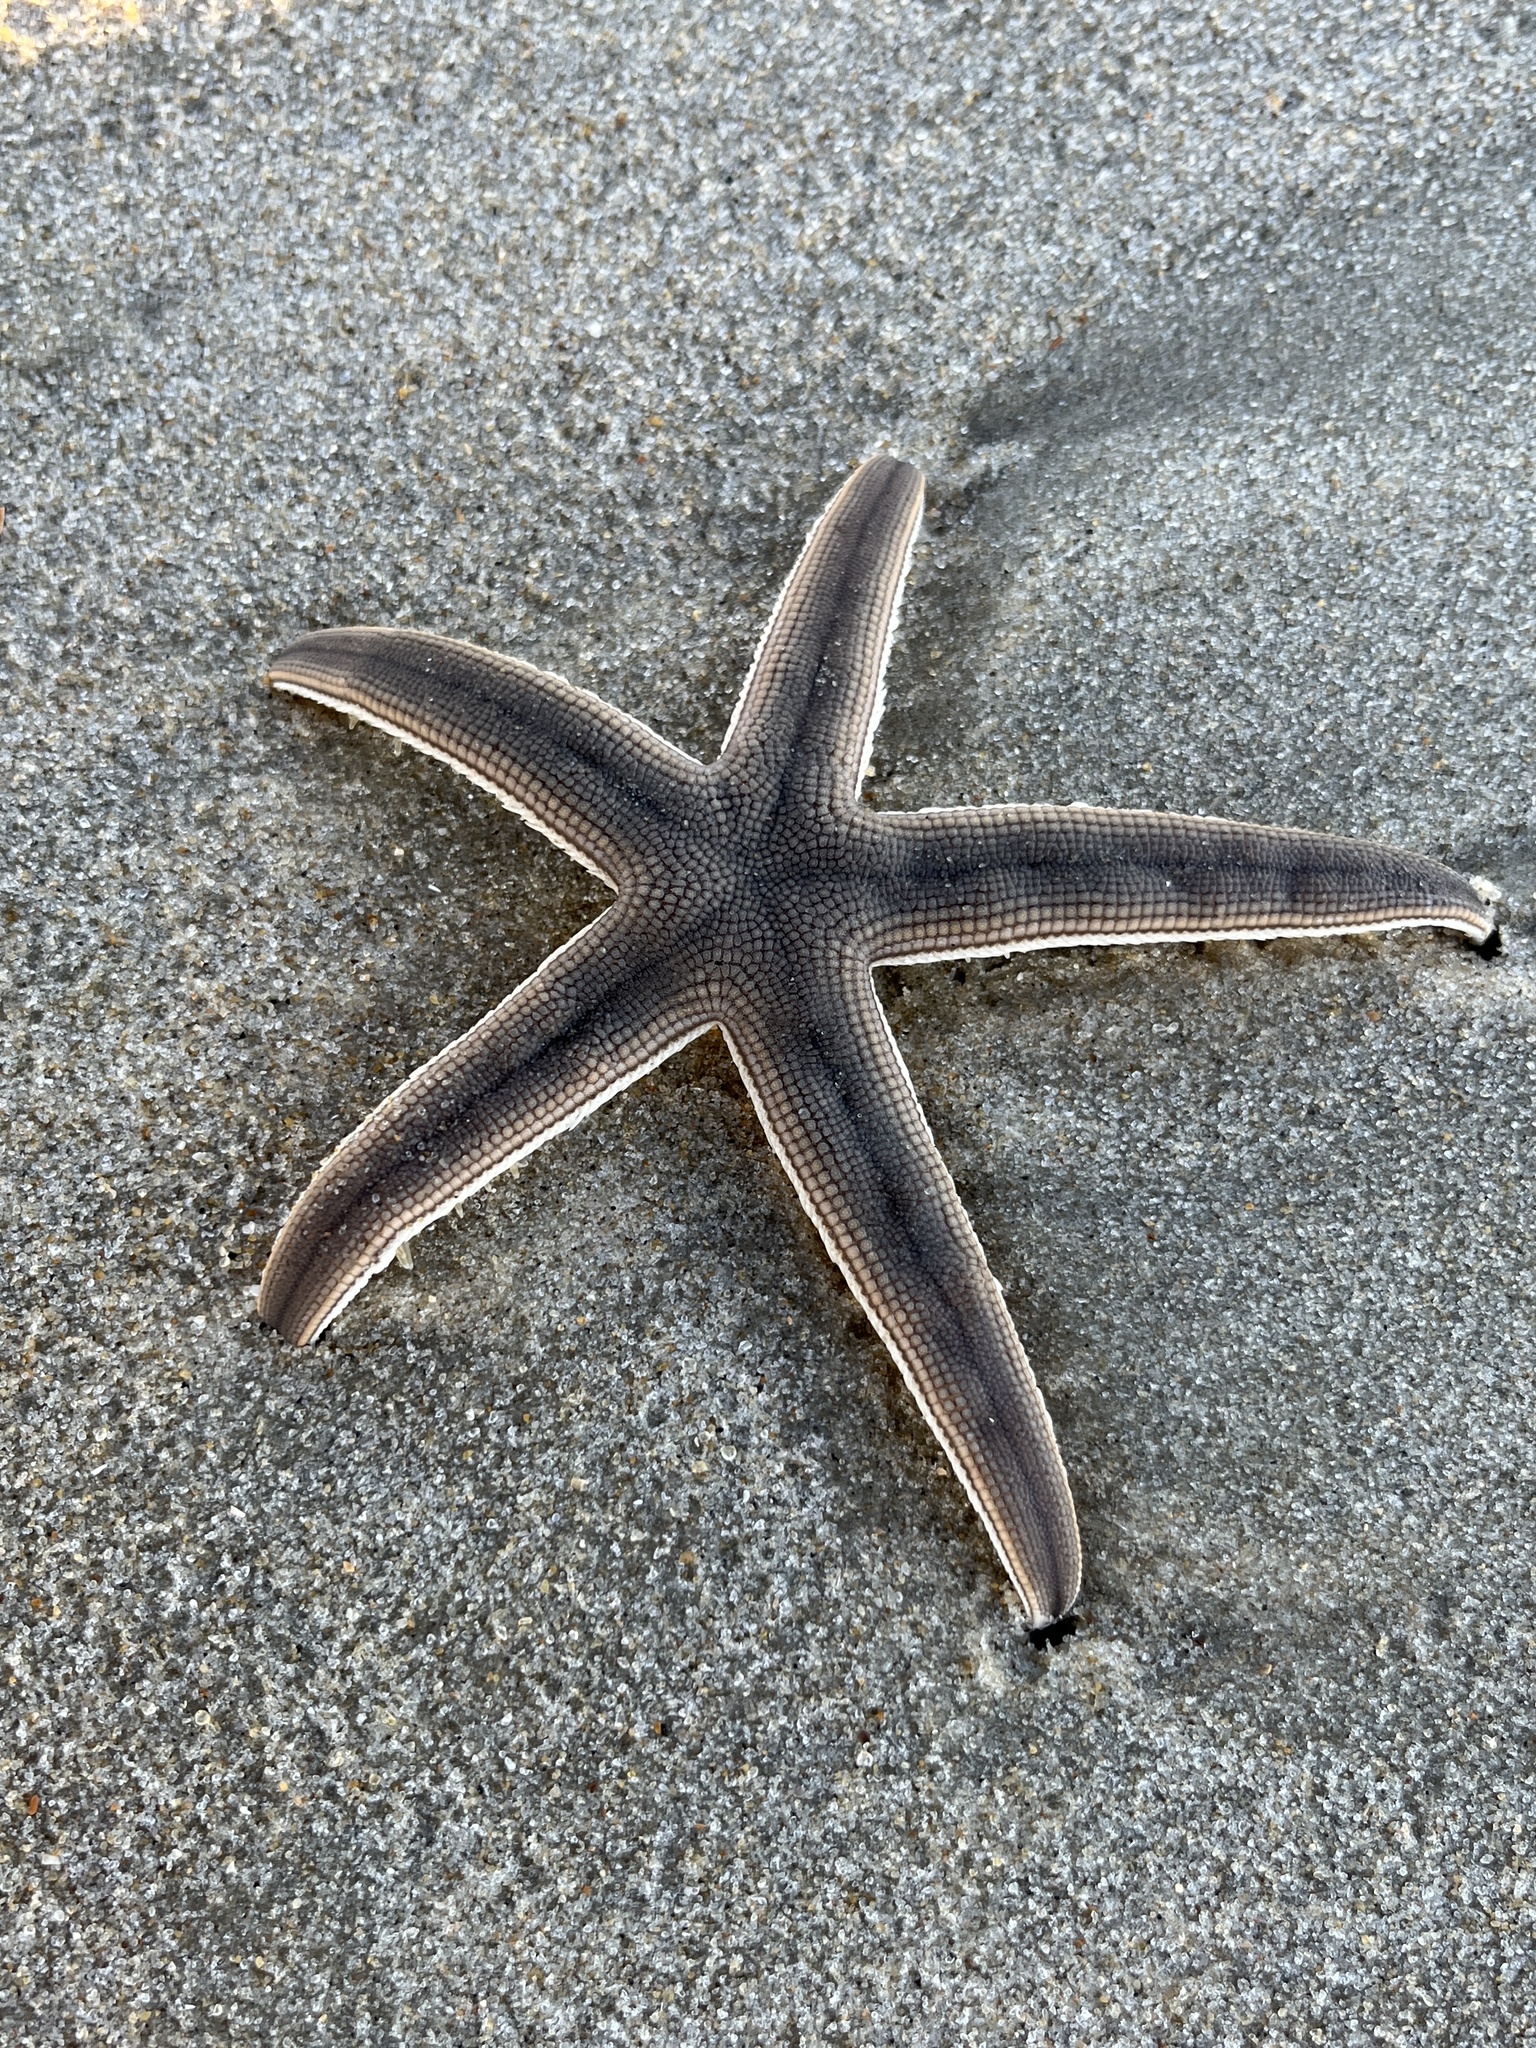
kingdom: Animalia
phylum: Echinodermata
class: Asteroidea
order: Paxillosida
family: Luidiidae
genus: Luidia
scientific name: Luidia clathrata
